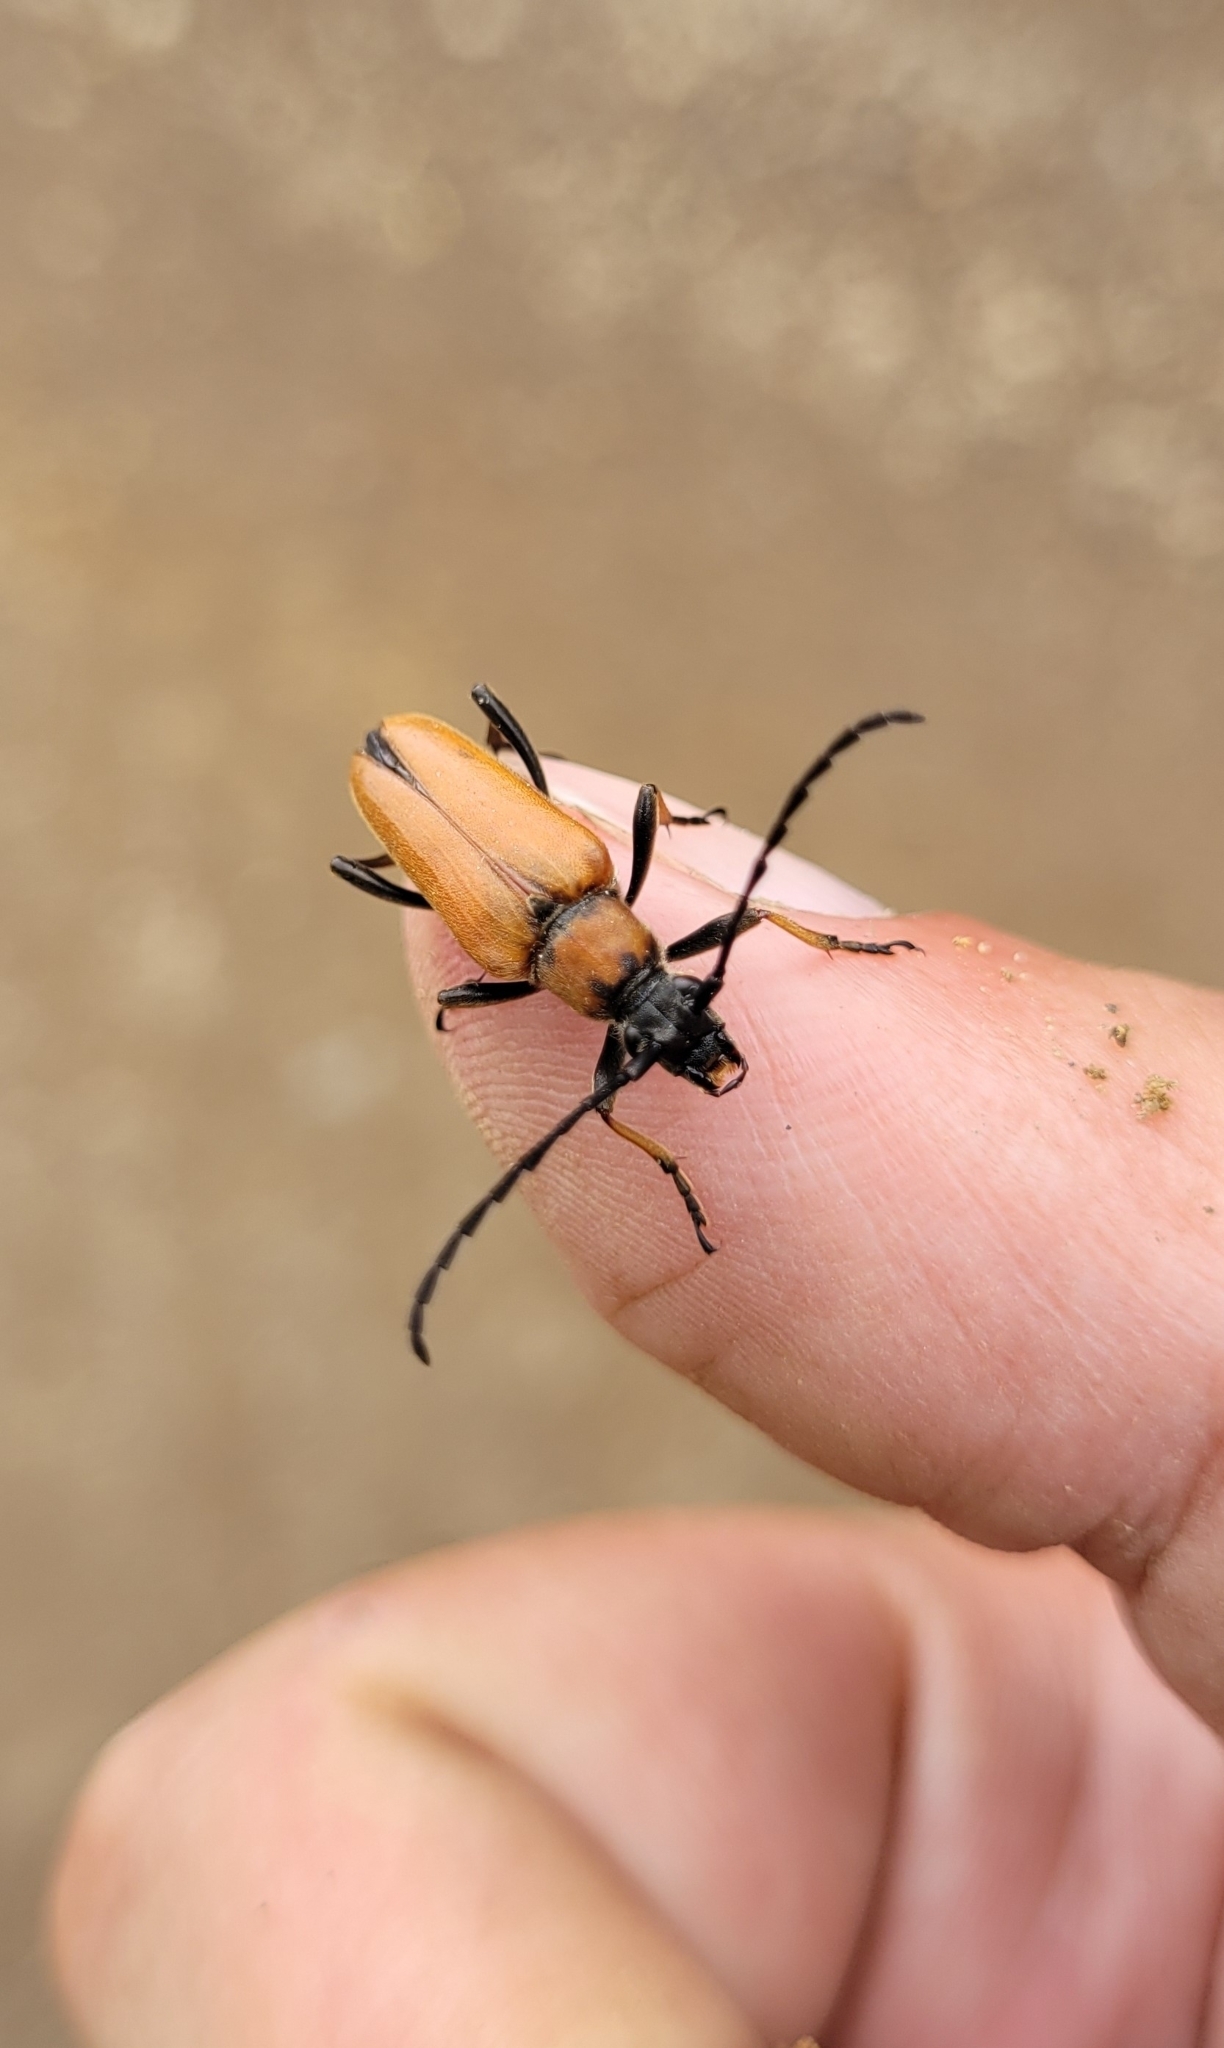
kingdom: Animalia
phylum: Arthropoda
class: Insecta
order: Coleoptera
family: Cerambycidae
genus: Stictoleptura
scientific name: Stictoleptura dichroa
